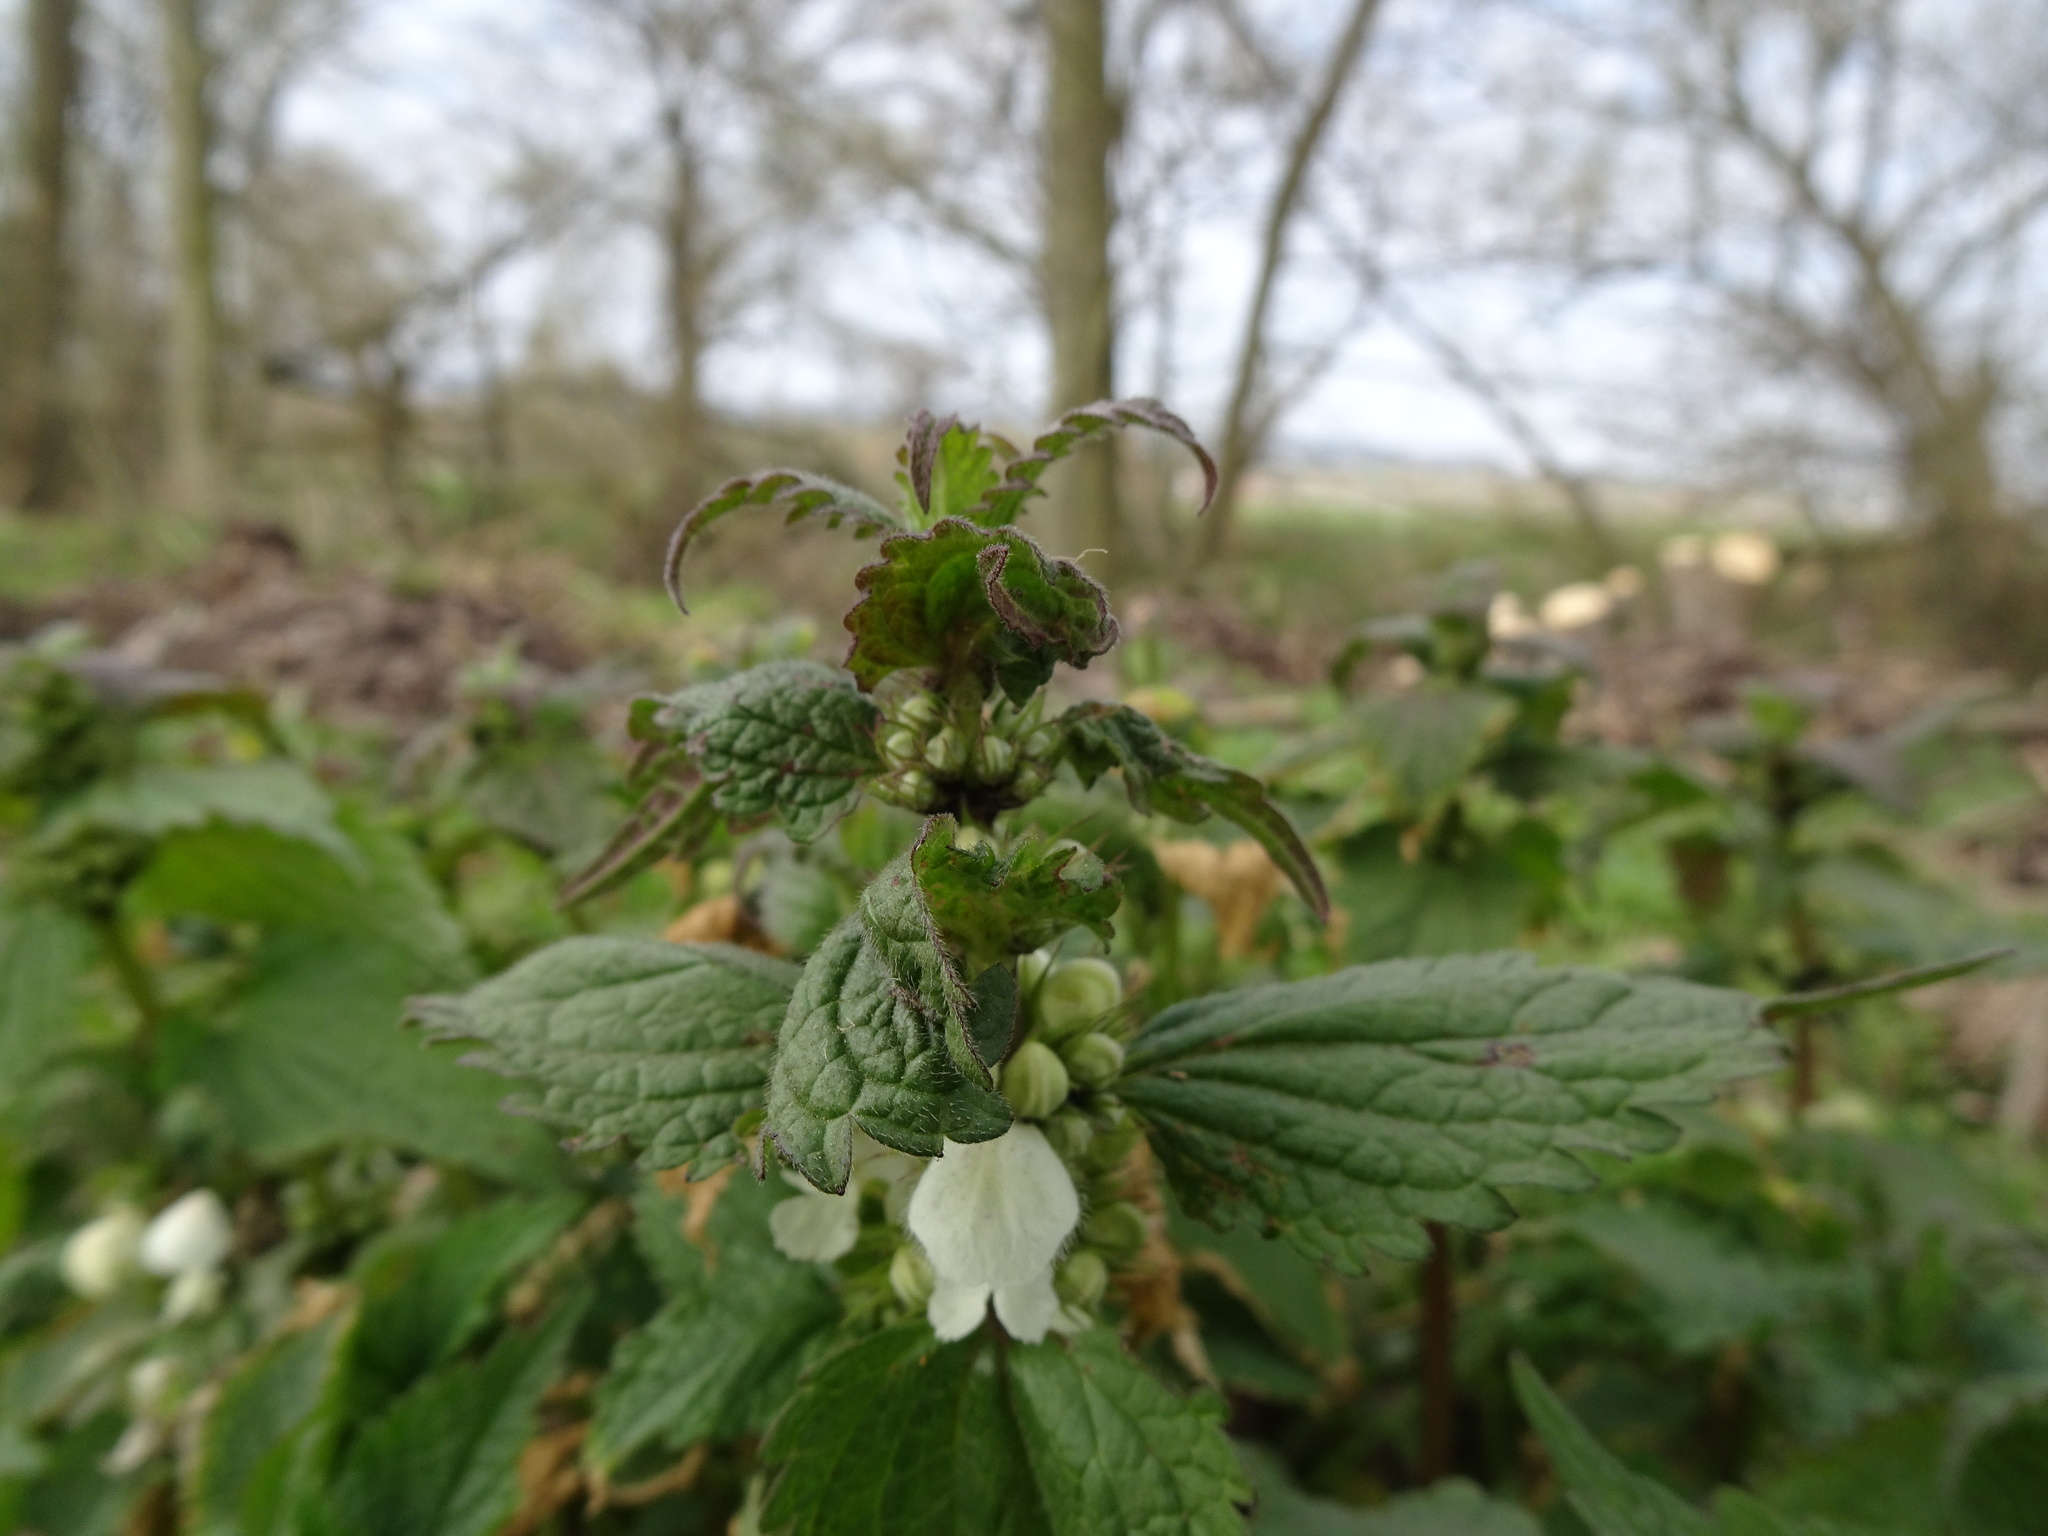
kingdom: Plantae
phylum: Tracheophyta
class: Magnoliopsida
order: Lamiales
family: Lamiaceae
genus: Lamium
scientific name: Lamium album
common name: White dead-nettle
